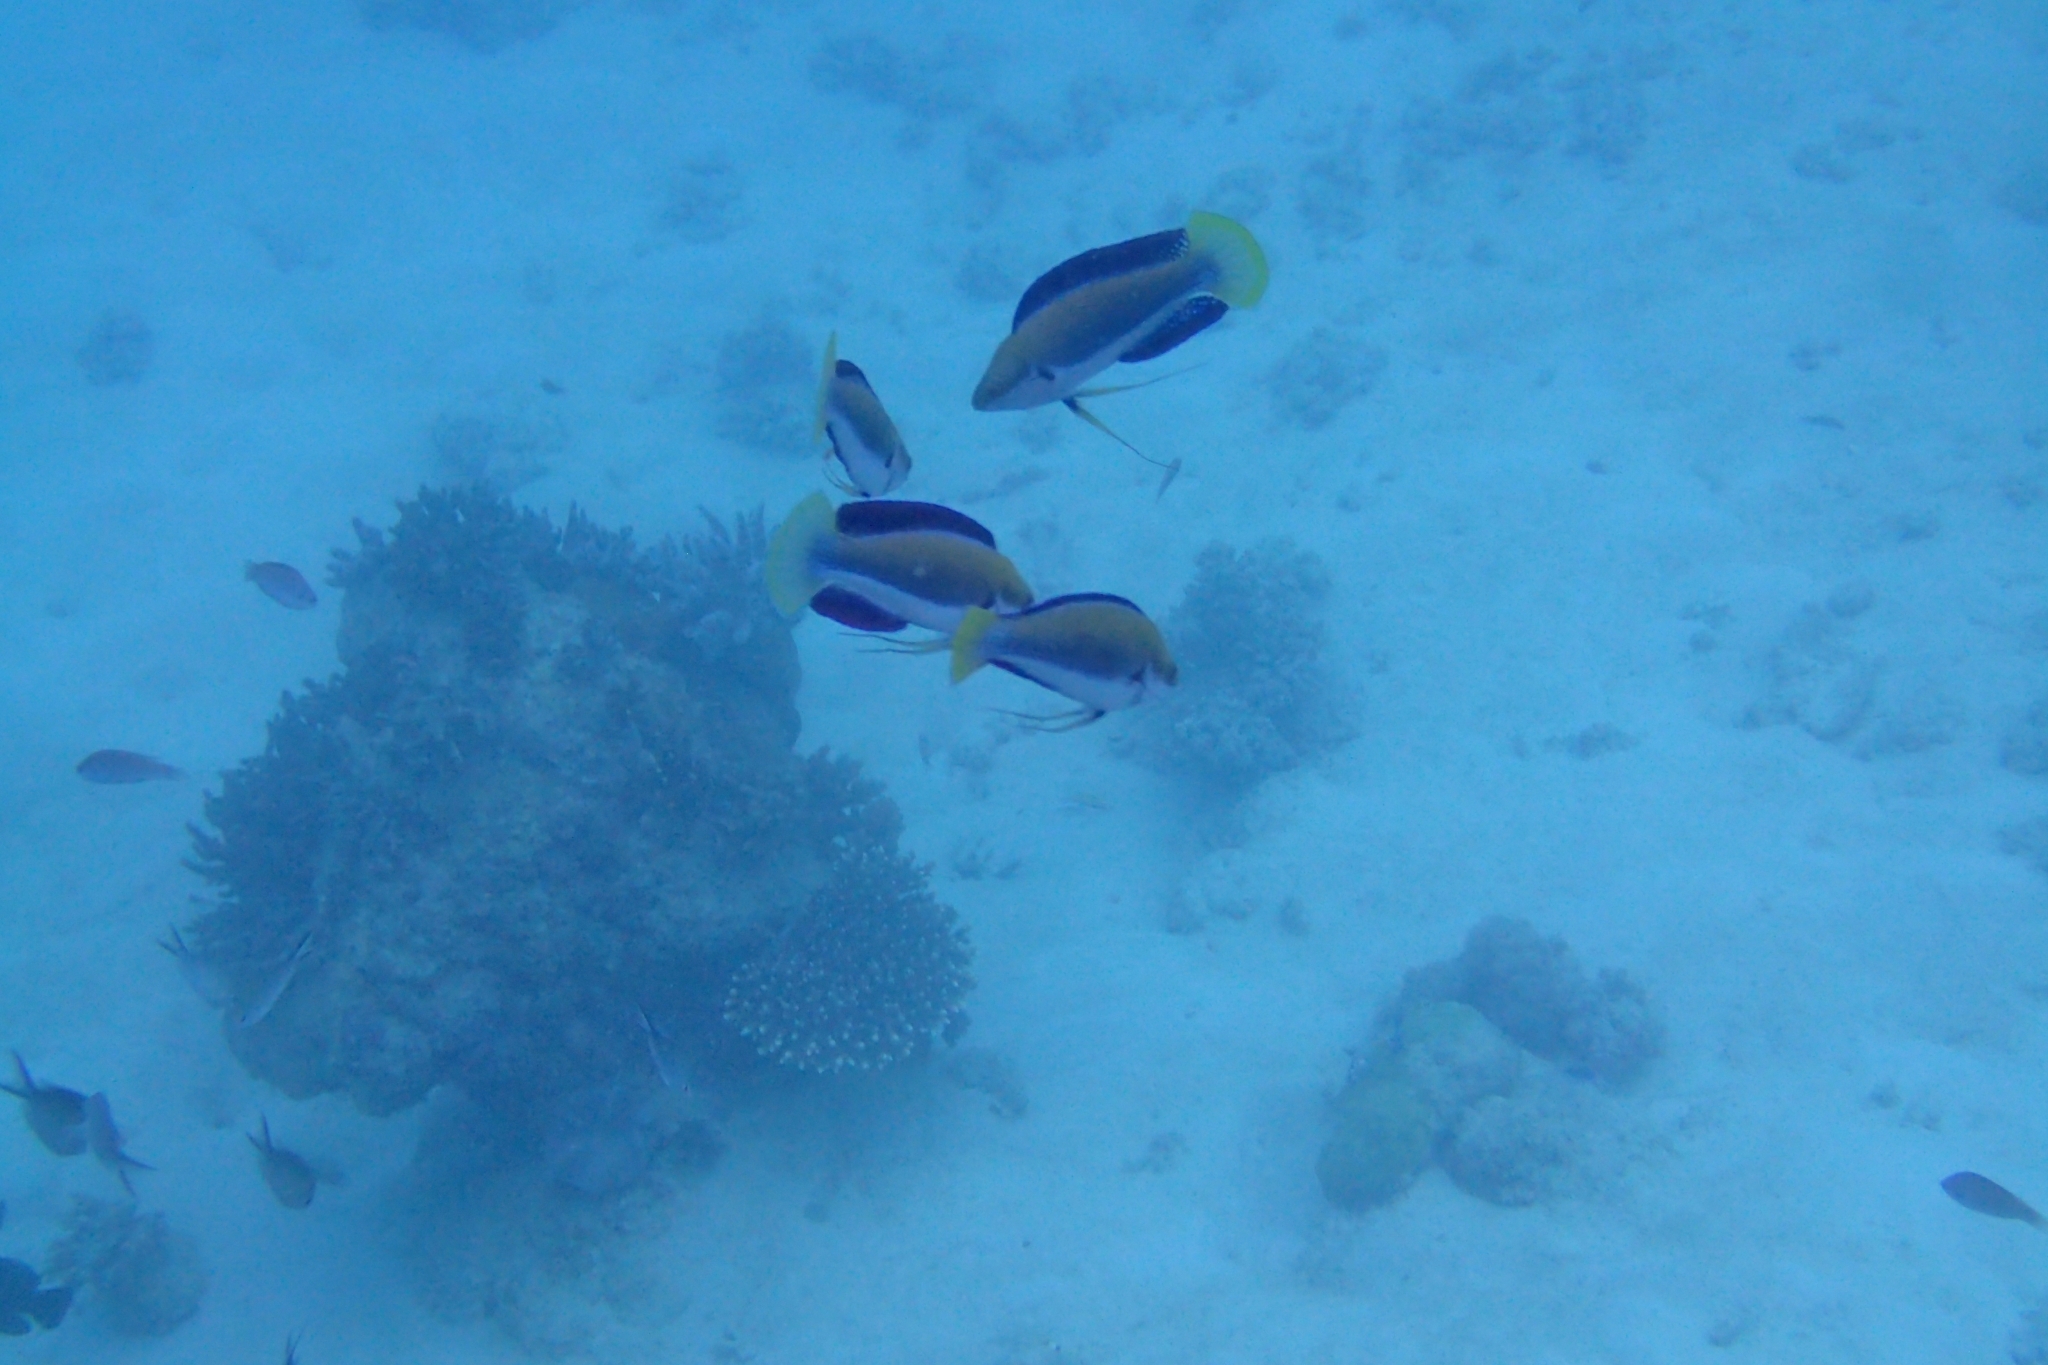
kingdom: Animalia
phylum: Chordata
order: Perciformes
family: Labridae
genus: Cirrhilabrus
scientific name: Cirrhilabrus punctatus
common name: Dotted wrasse
